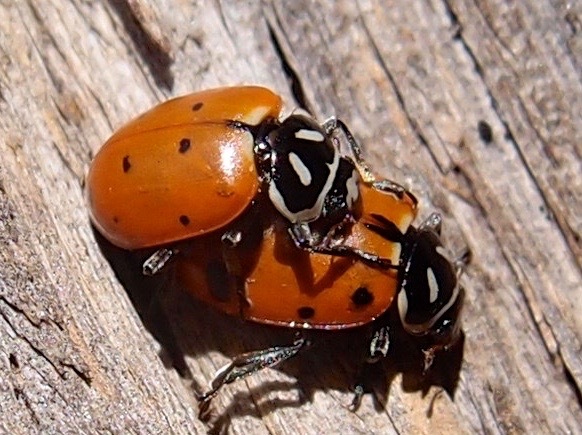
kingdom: Animalia
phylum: Arthropoda
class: Insecta
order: Coleoptera
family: Coccinellidae
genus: Hippodamia
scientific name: Hippodamia convergens
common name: Convergent lady beetle
